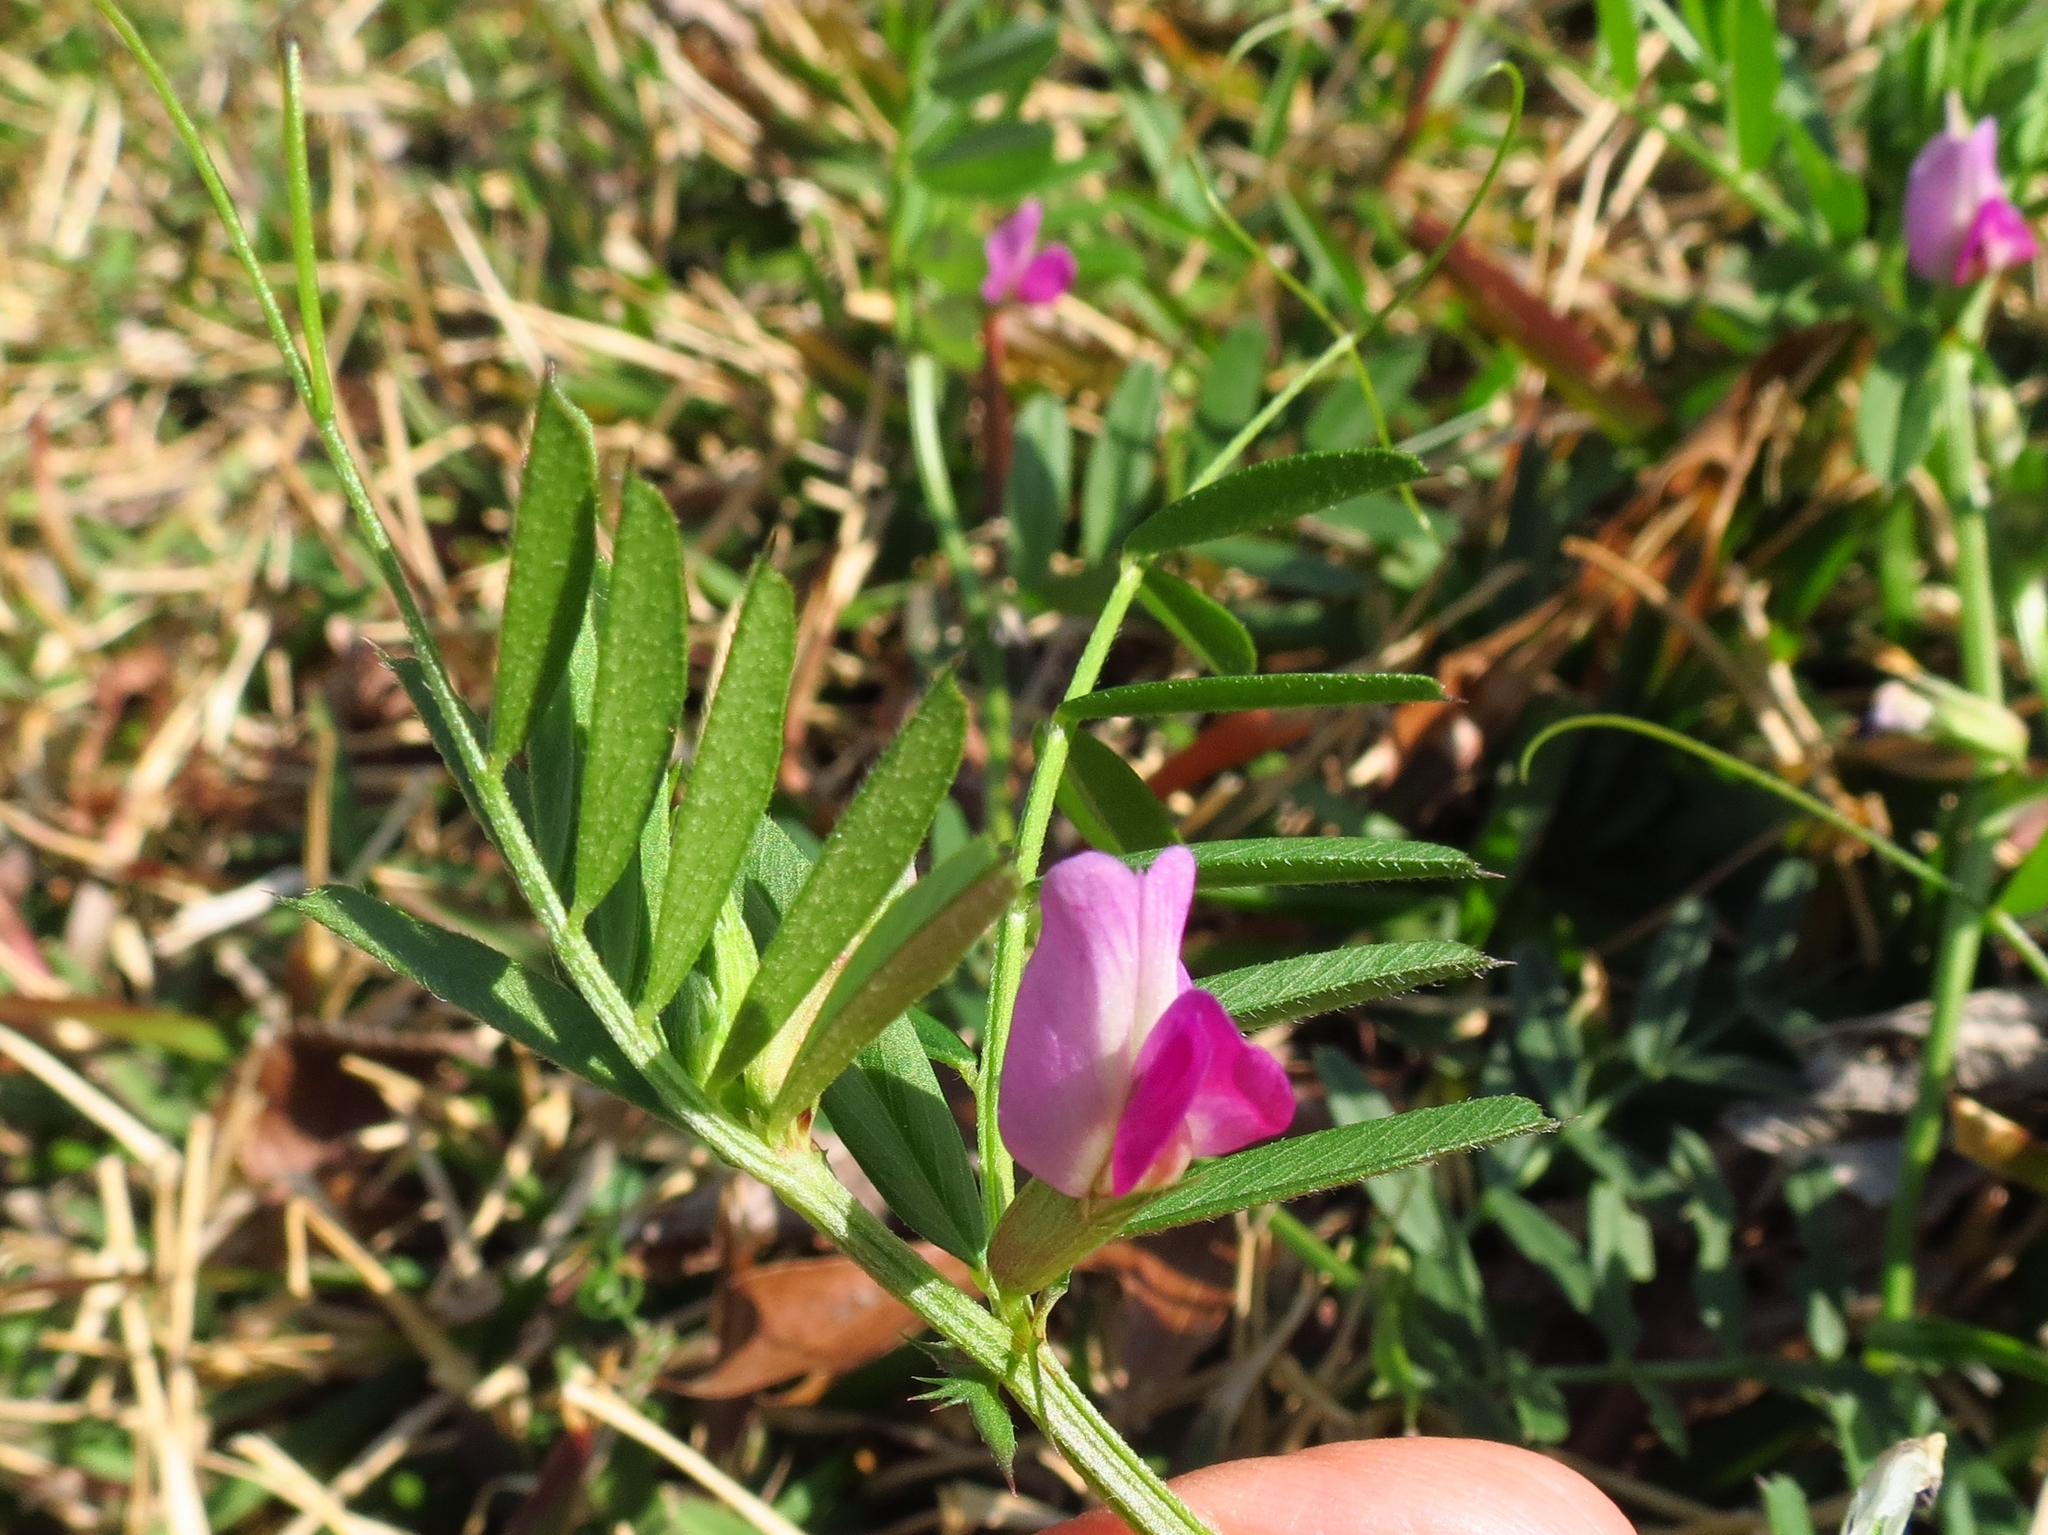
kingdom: Plantae
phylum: Tracheophyta
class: Magnoliopsida
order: Fabales
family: Fabaceae
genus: Vicia
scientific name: Vicia sativa
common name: Garden vetch
